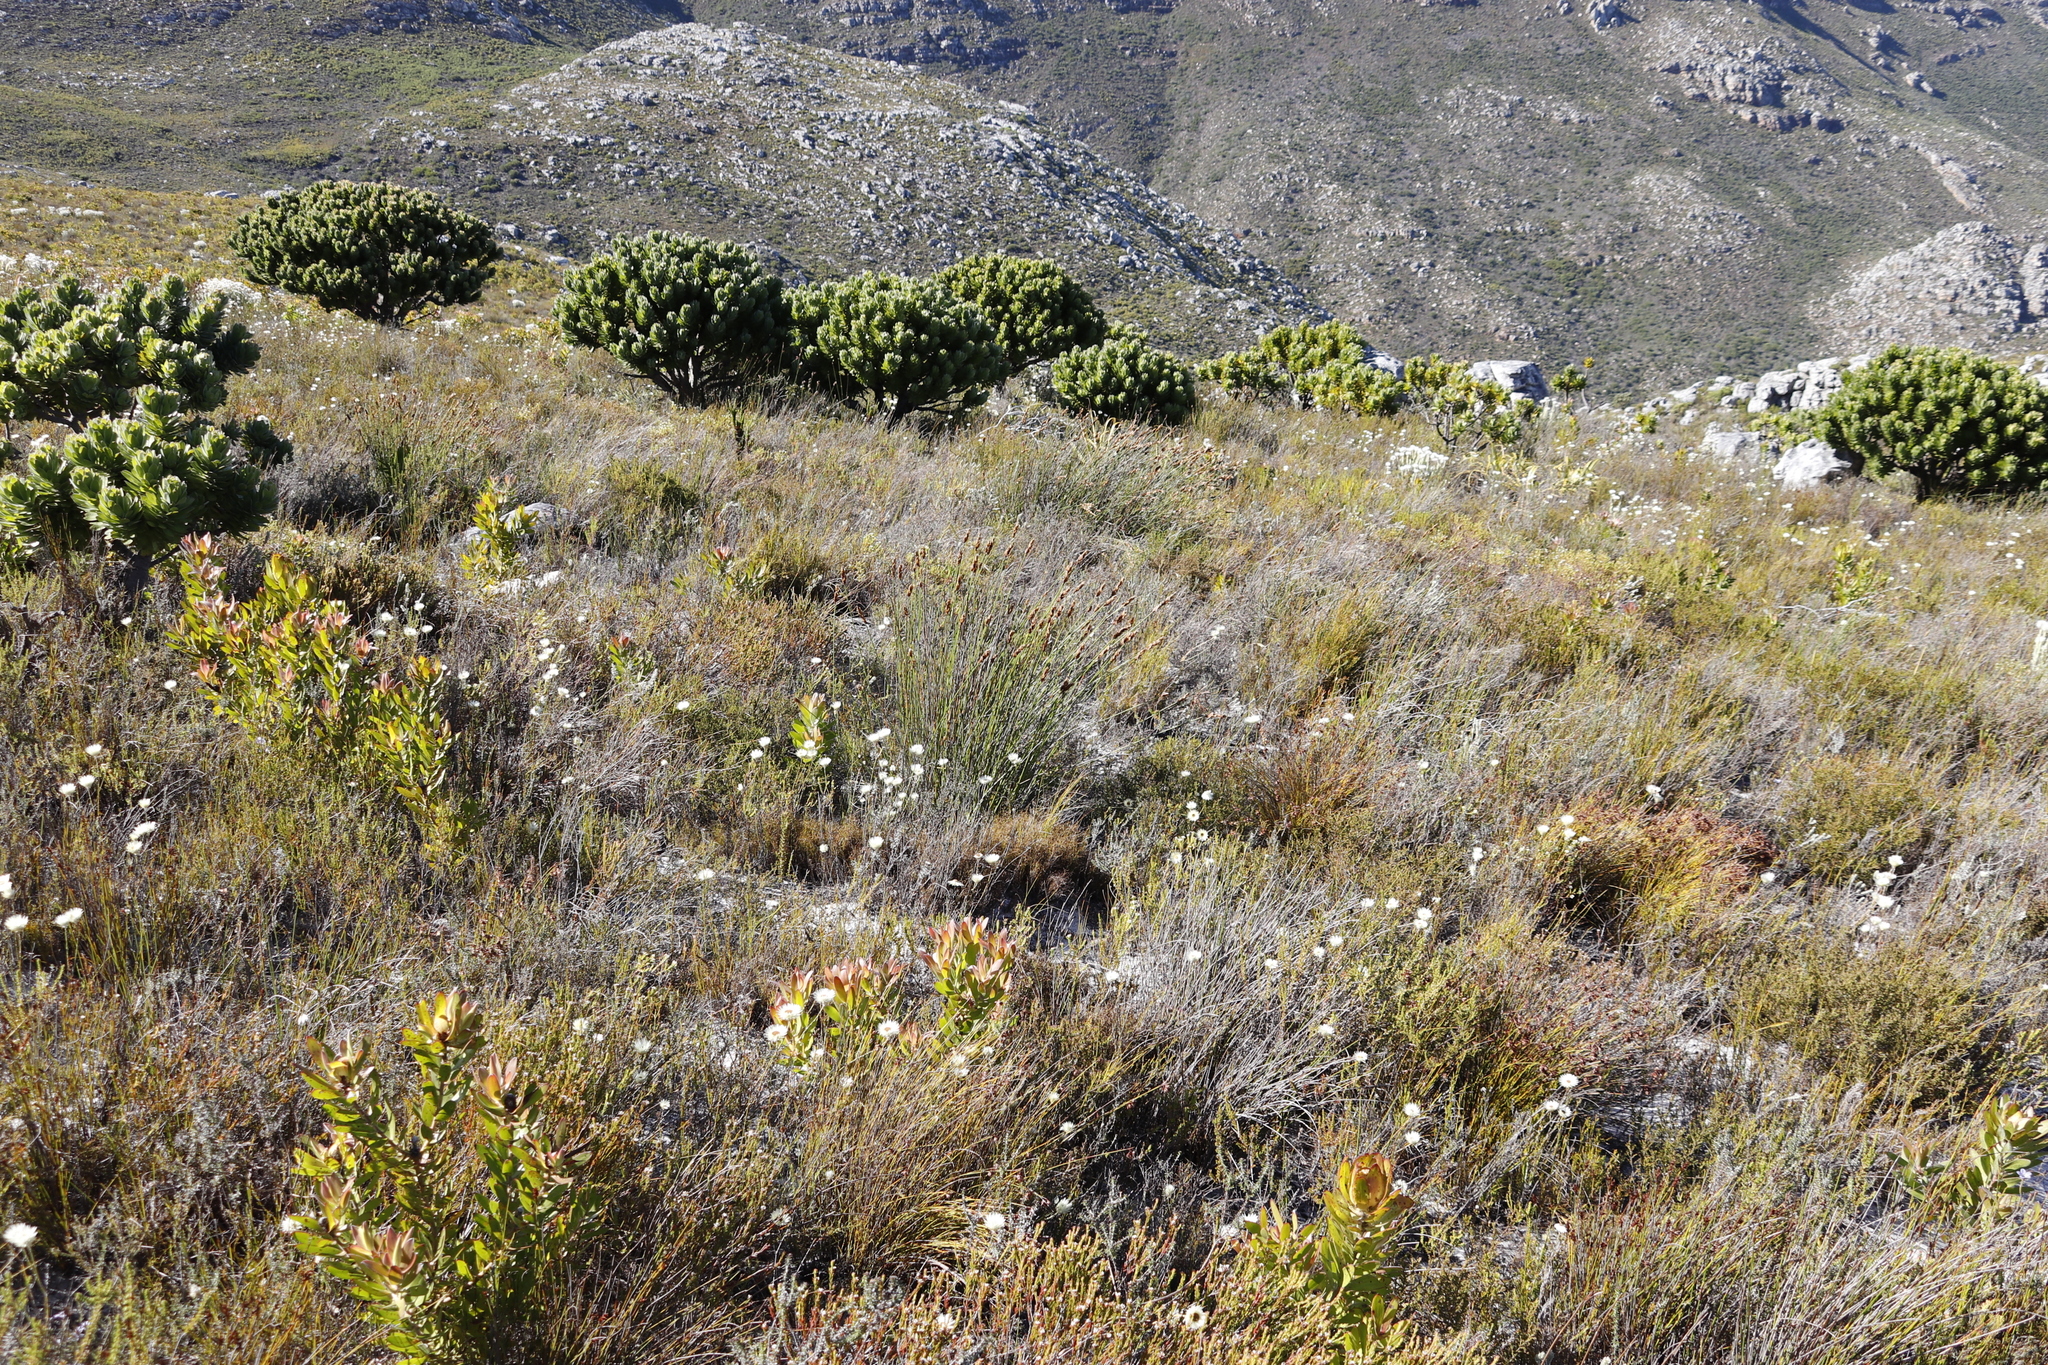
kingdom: Plantae
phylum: Tracheophyta
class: Magnoliopsida
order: Bruniales
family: Bruniaceae
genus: Staavia
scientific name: Staavia radiata
